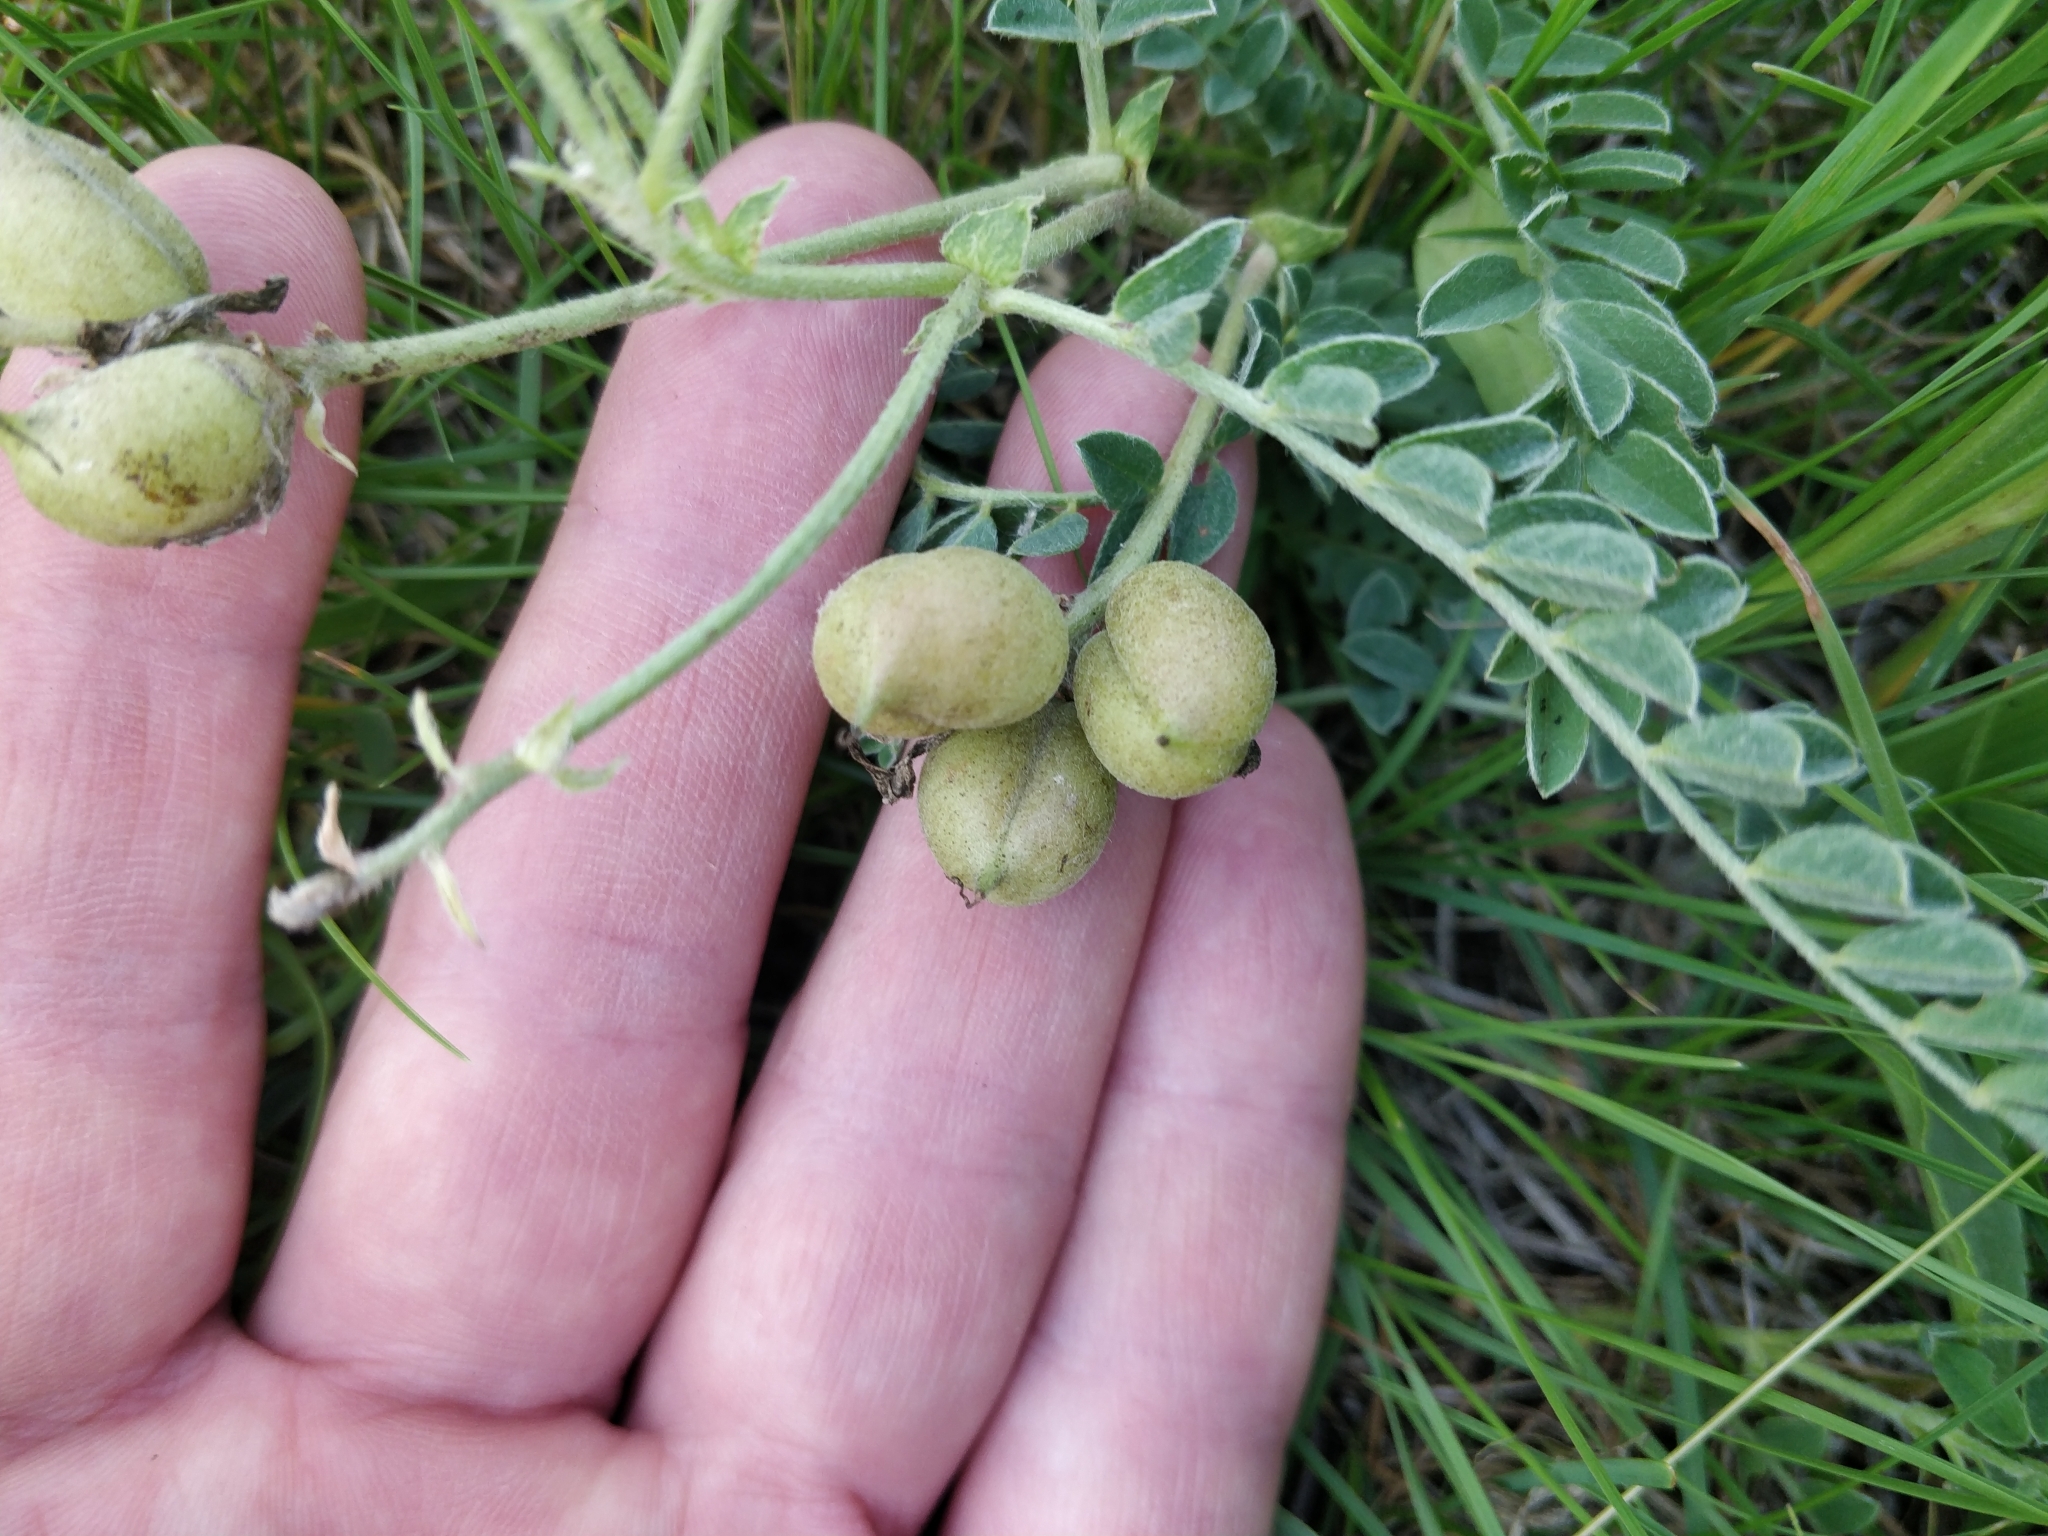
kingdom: Plantae
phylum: Tracheophyta
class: Magnoliopsida
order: Fabales
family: Fabaceae
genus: Astragalus
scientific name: Astragalus plattensis
